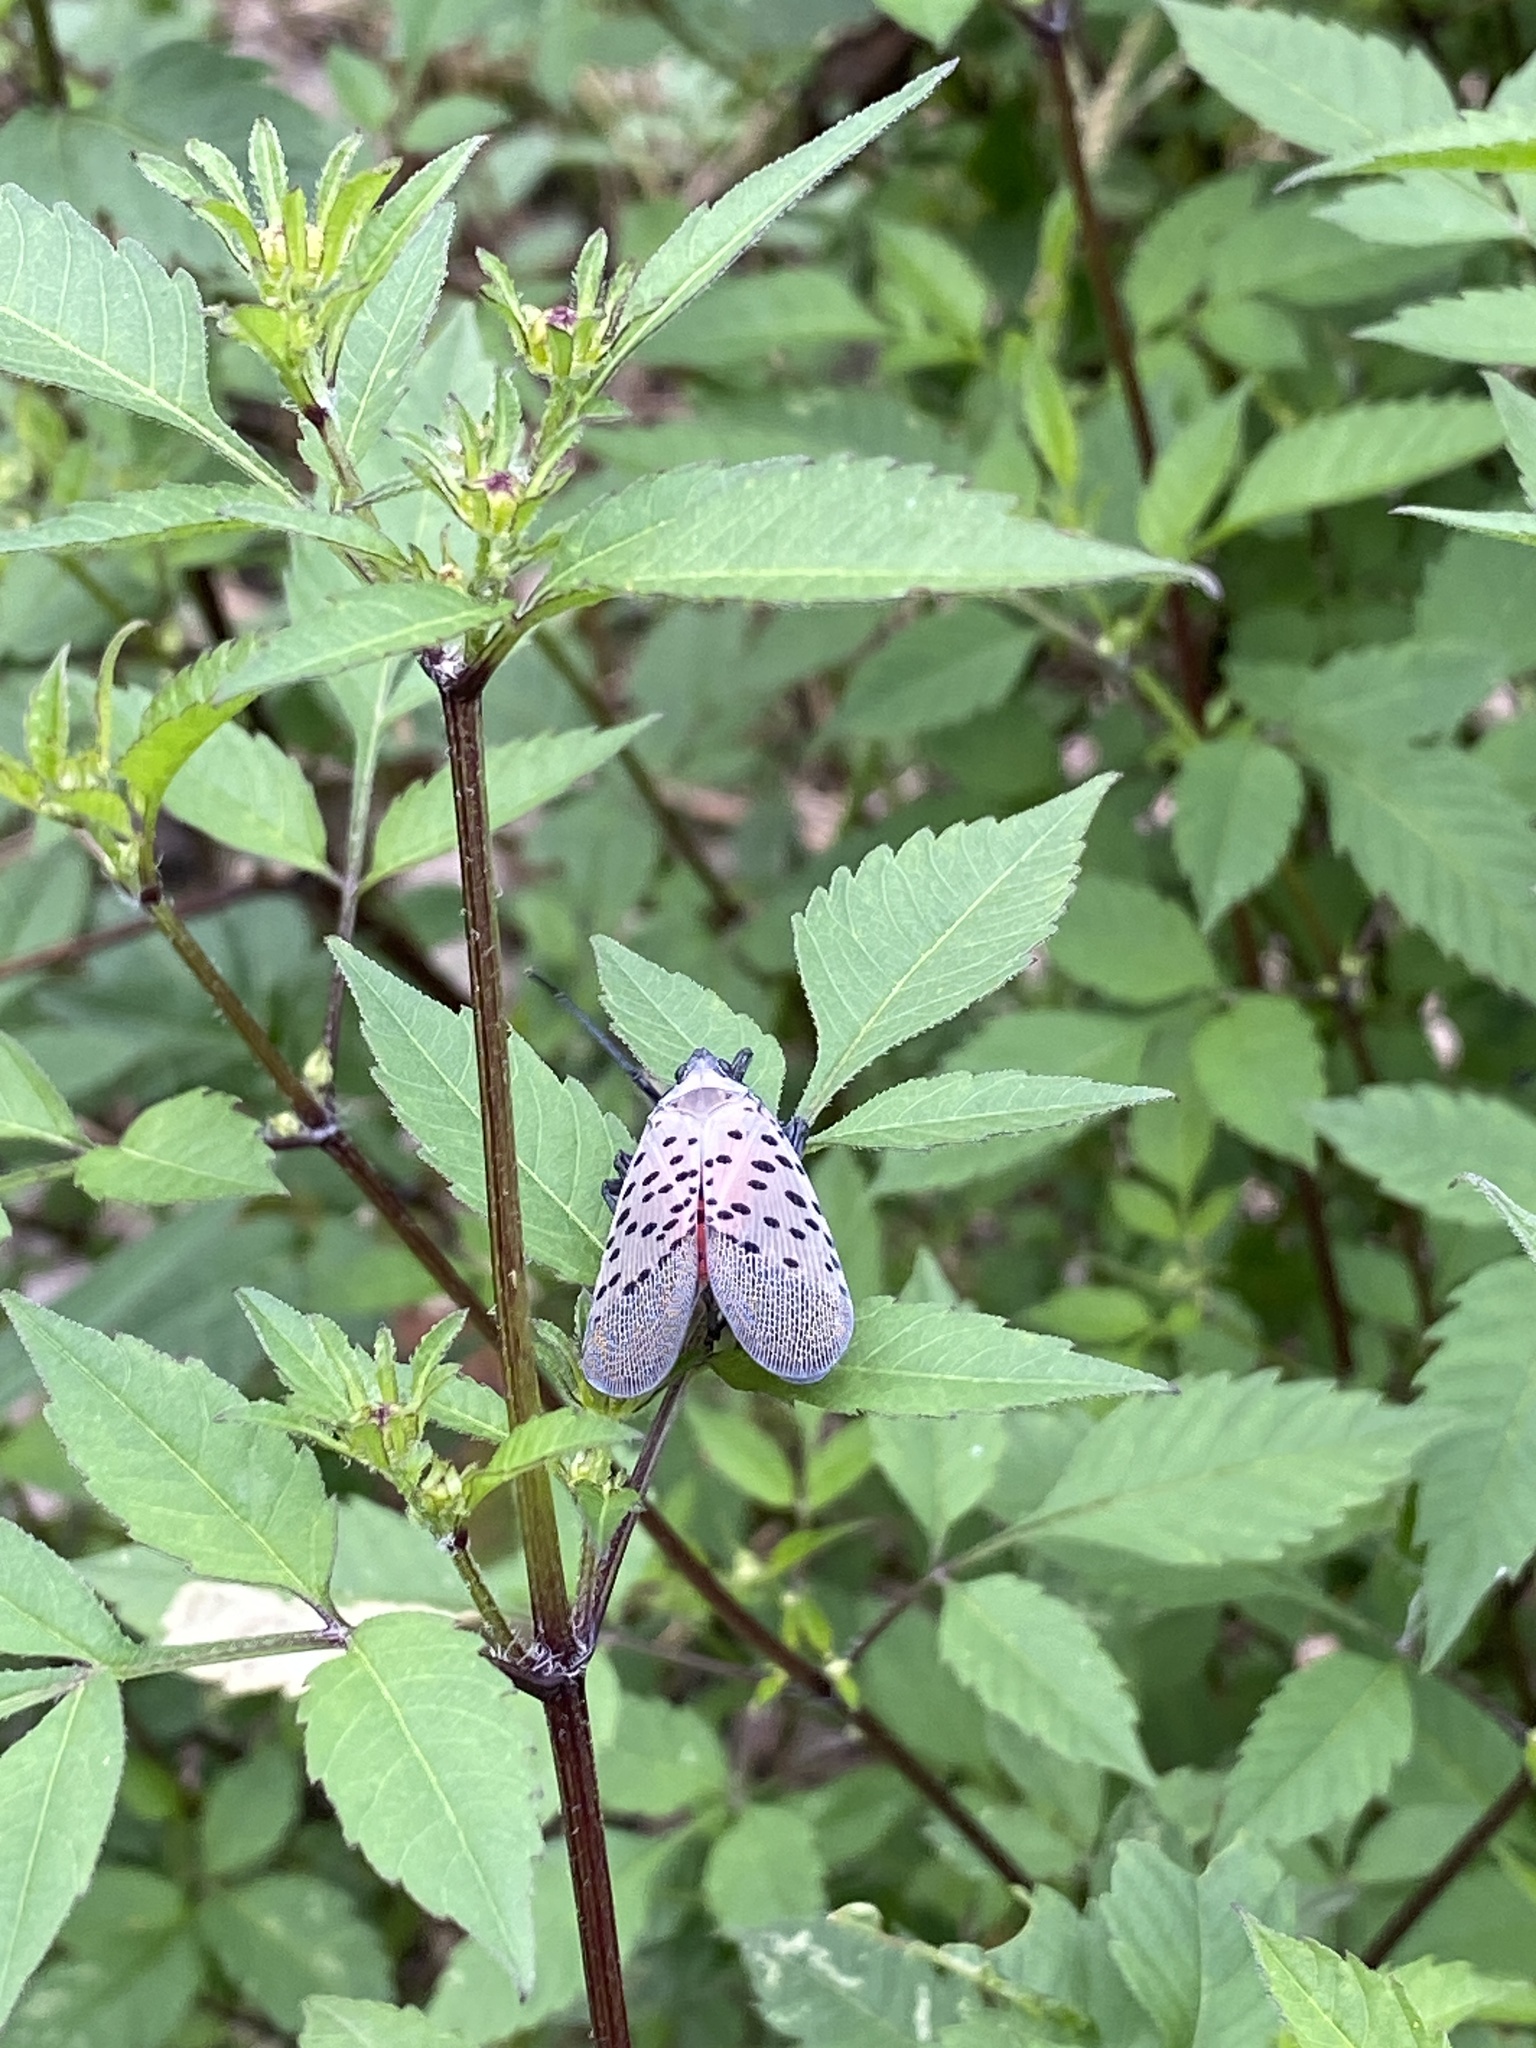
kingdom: Animalia
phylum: Arthropoda
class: Insecta
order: Hemiptera
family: Fulgoridae
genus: Lycorma
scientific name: Lycorma delicatula
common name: Spotted lanternfly
